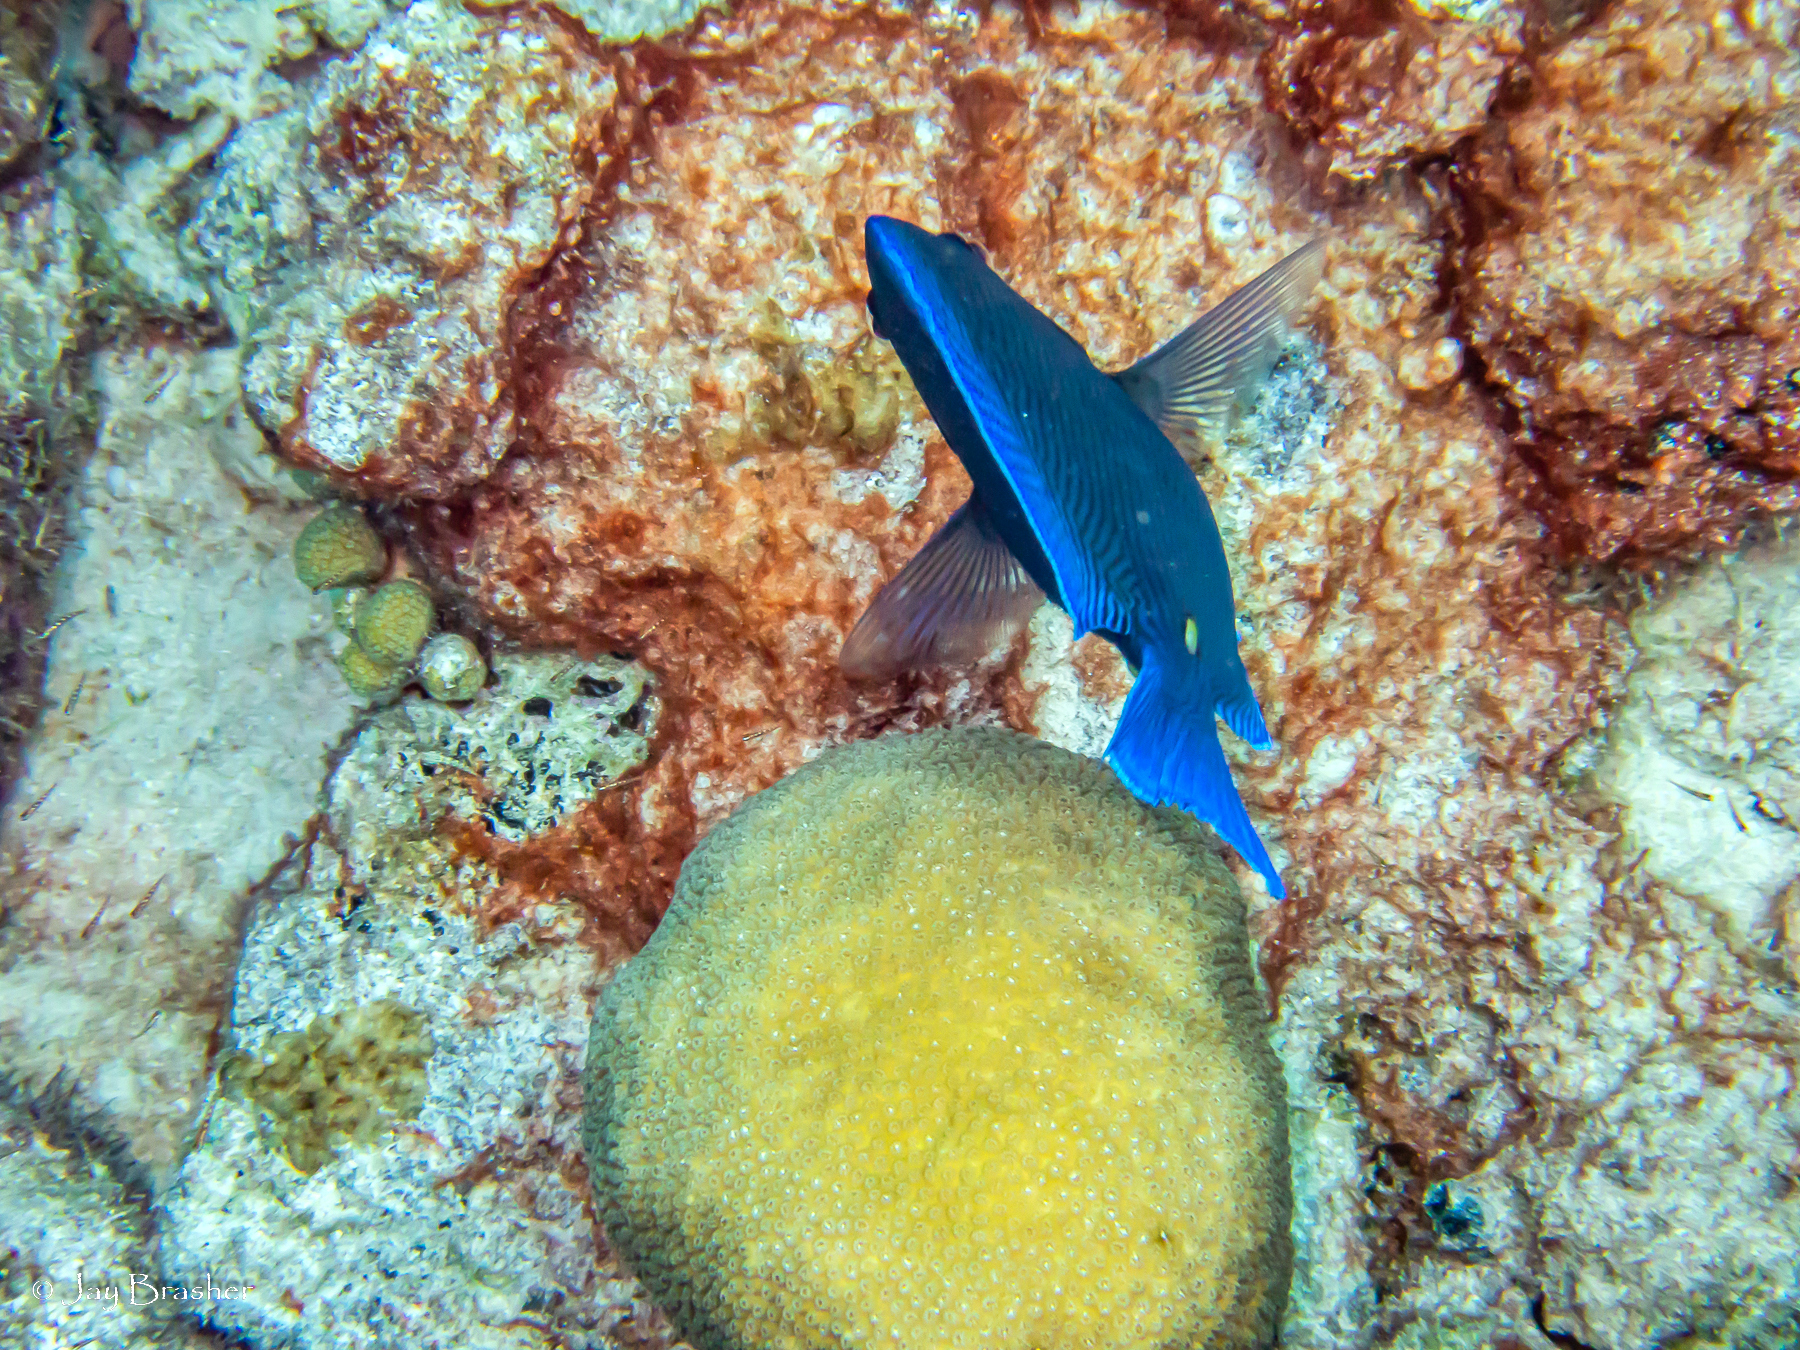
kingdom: Animalia
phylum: Chordata
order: Perciformes
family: Acanthuridae
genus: Acanthurus
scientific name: Acanthurus coeruleus
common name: Blue tang
